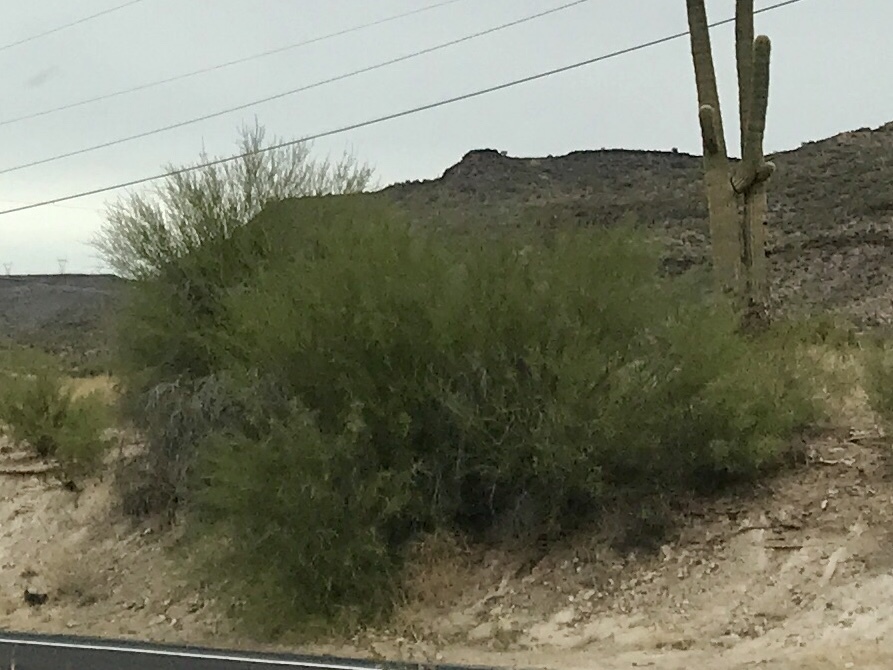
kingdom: Plantae
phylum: Tracheophyta
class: Magnoliopsida
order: Fabales
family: Fabaceae
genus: Parkinsonia
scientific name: Parkinsonia microphylla
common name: Yellow paloverde
